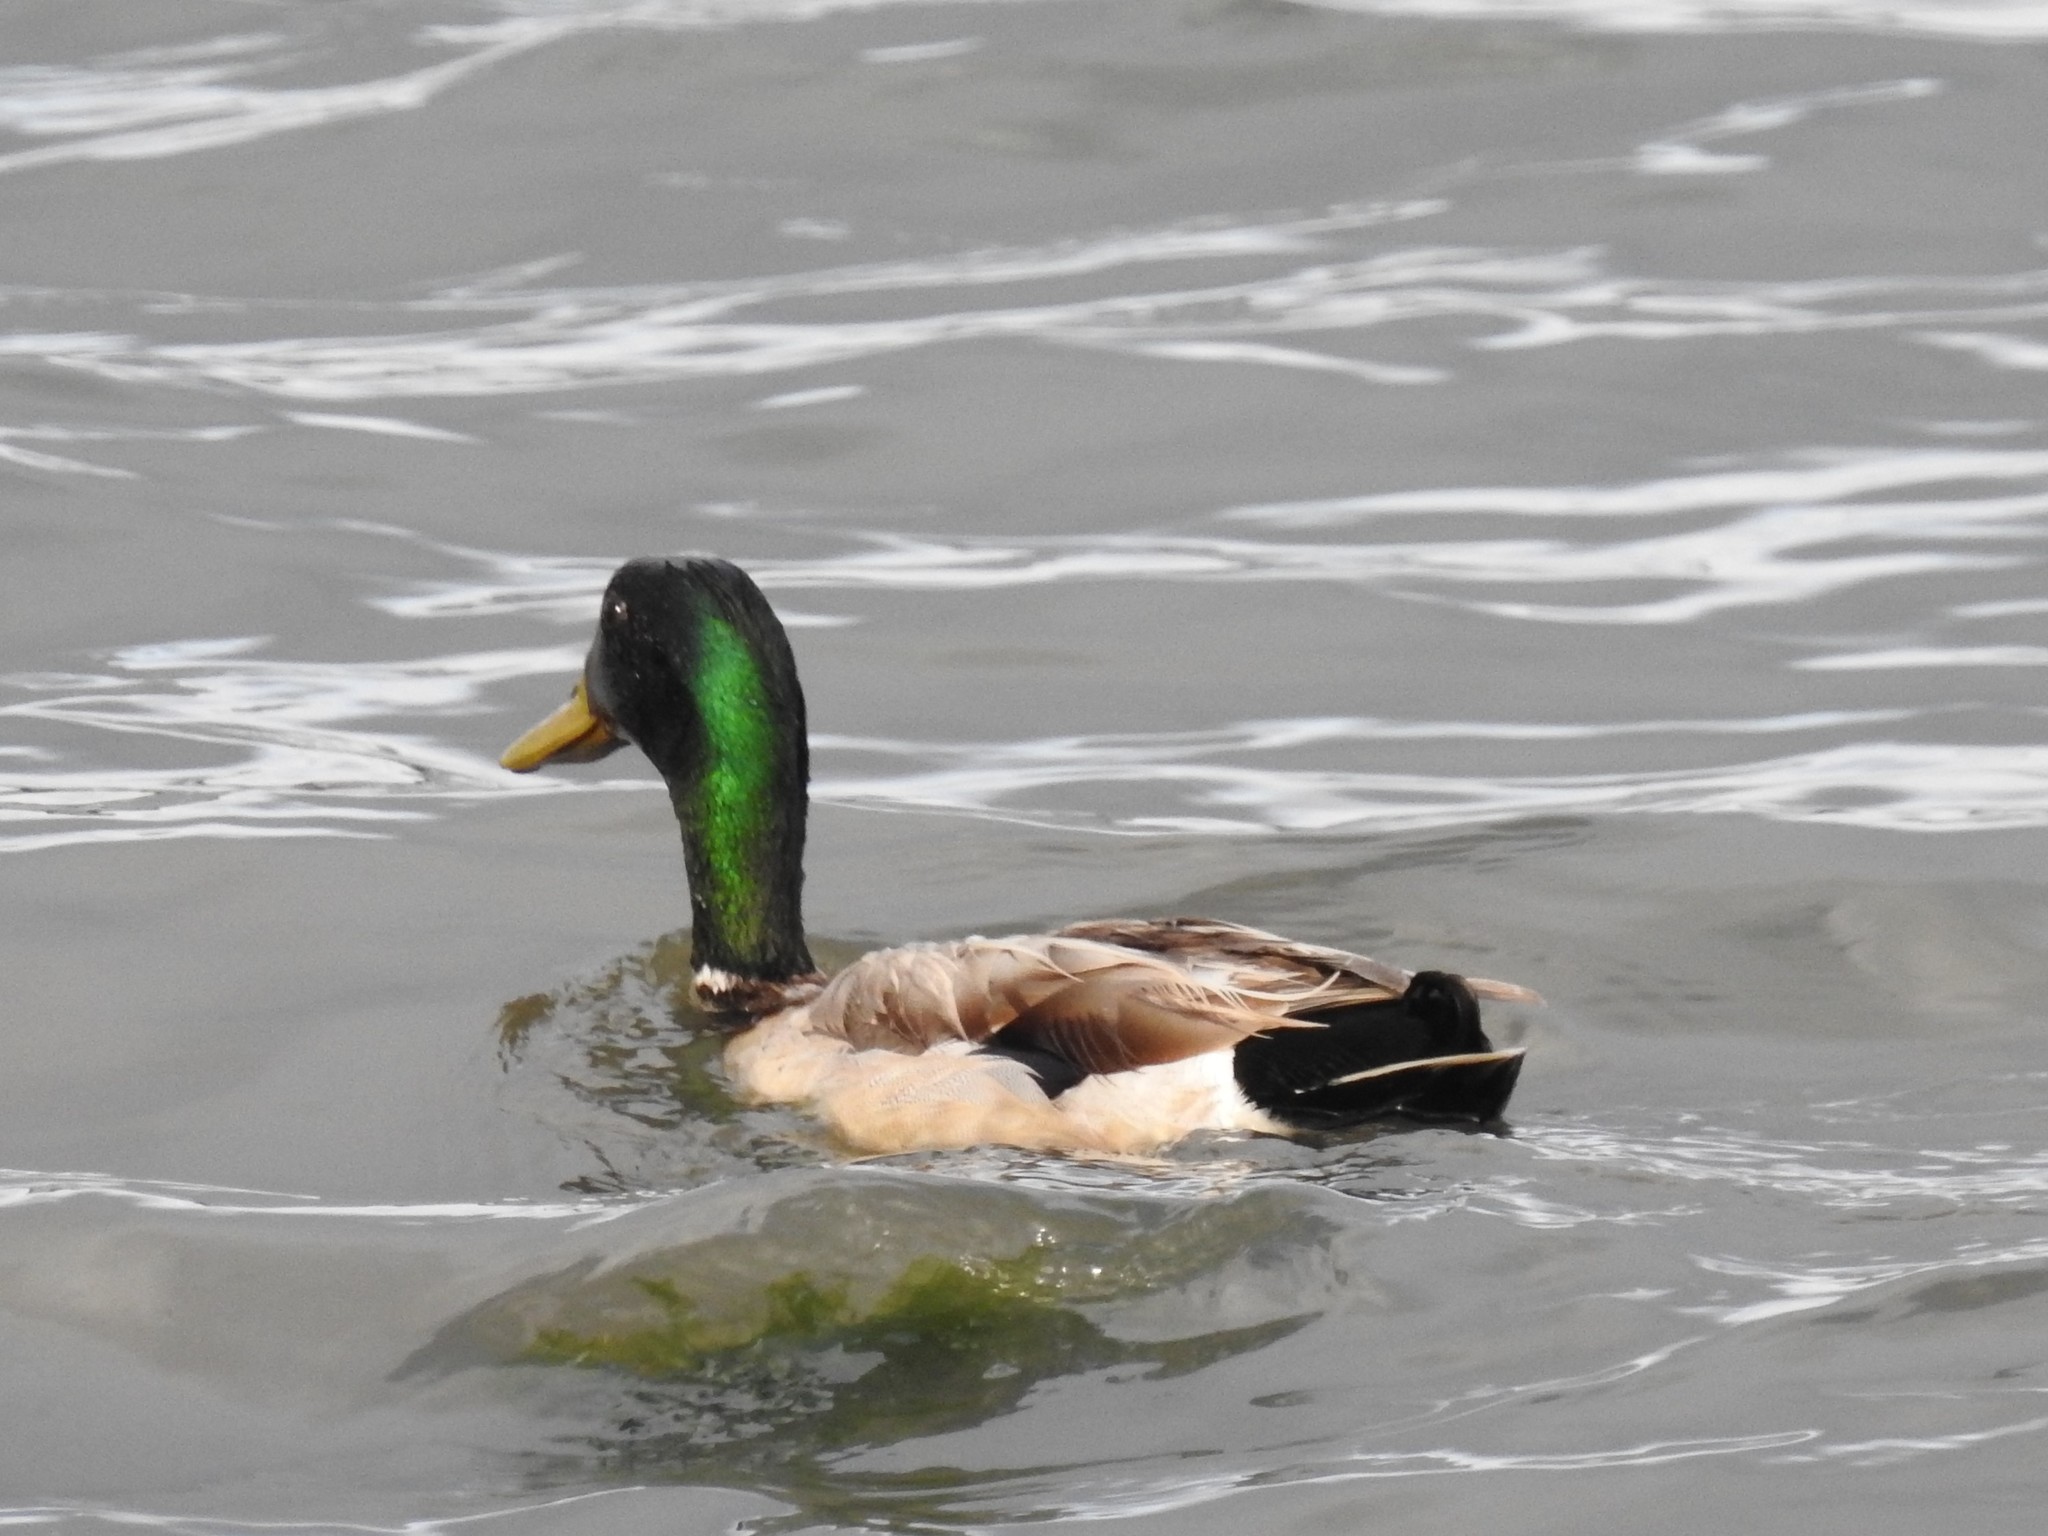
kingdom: Animalia
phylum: Chordata
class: Aves
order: Anseriformes
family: Anatidae
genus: Anas
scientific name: Anas platyrhynchos
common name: Mallard
